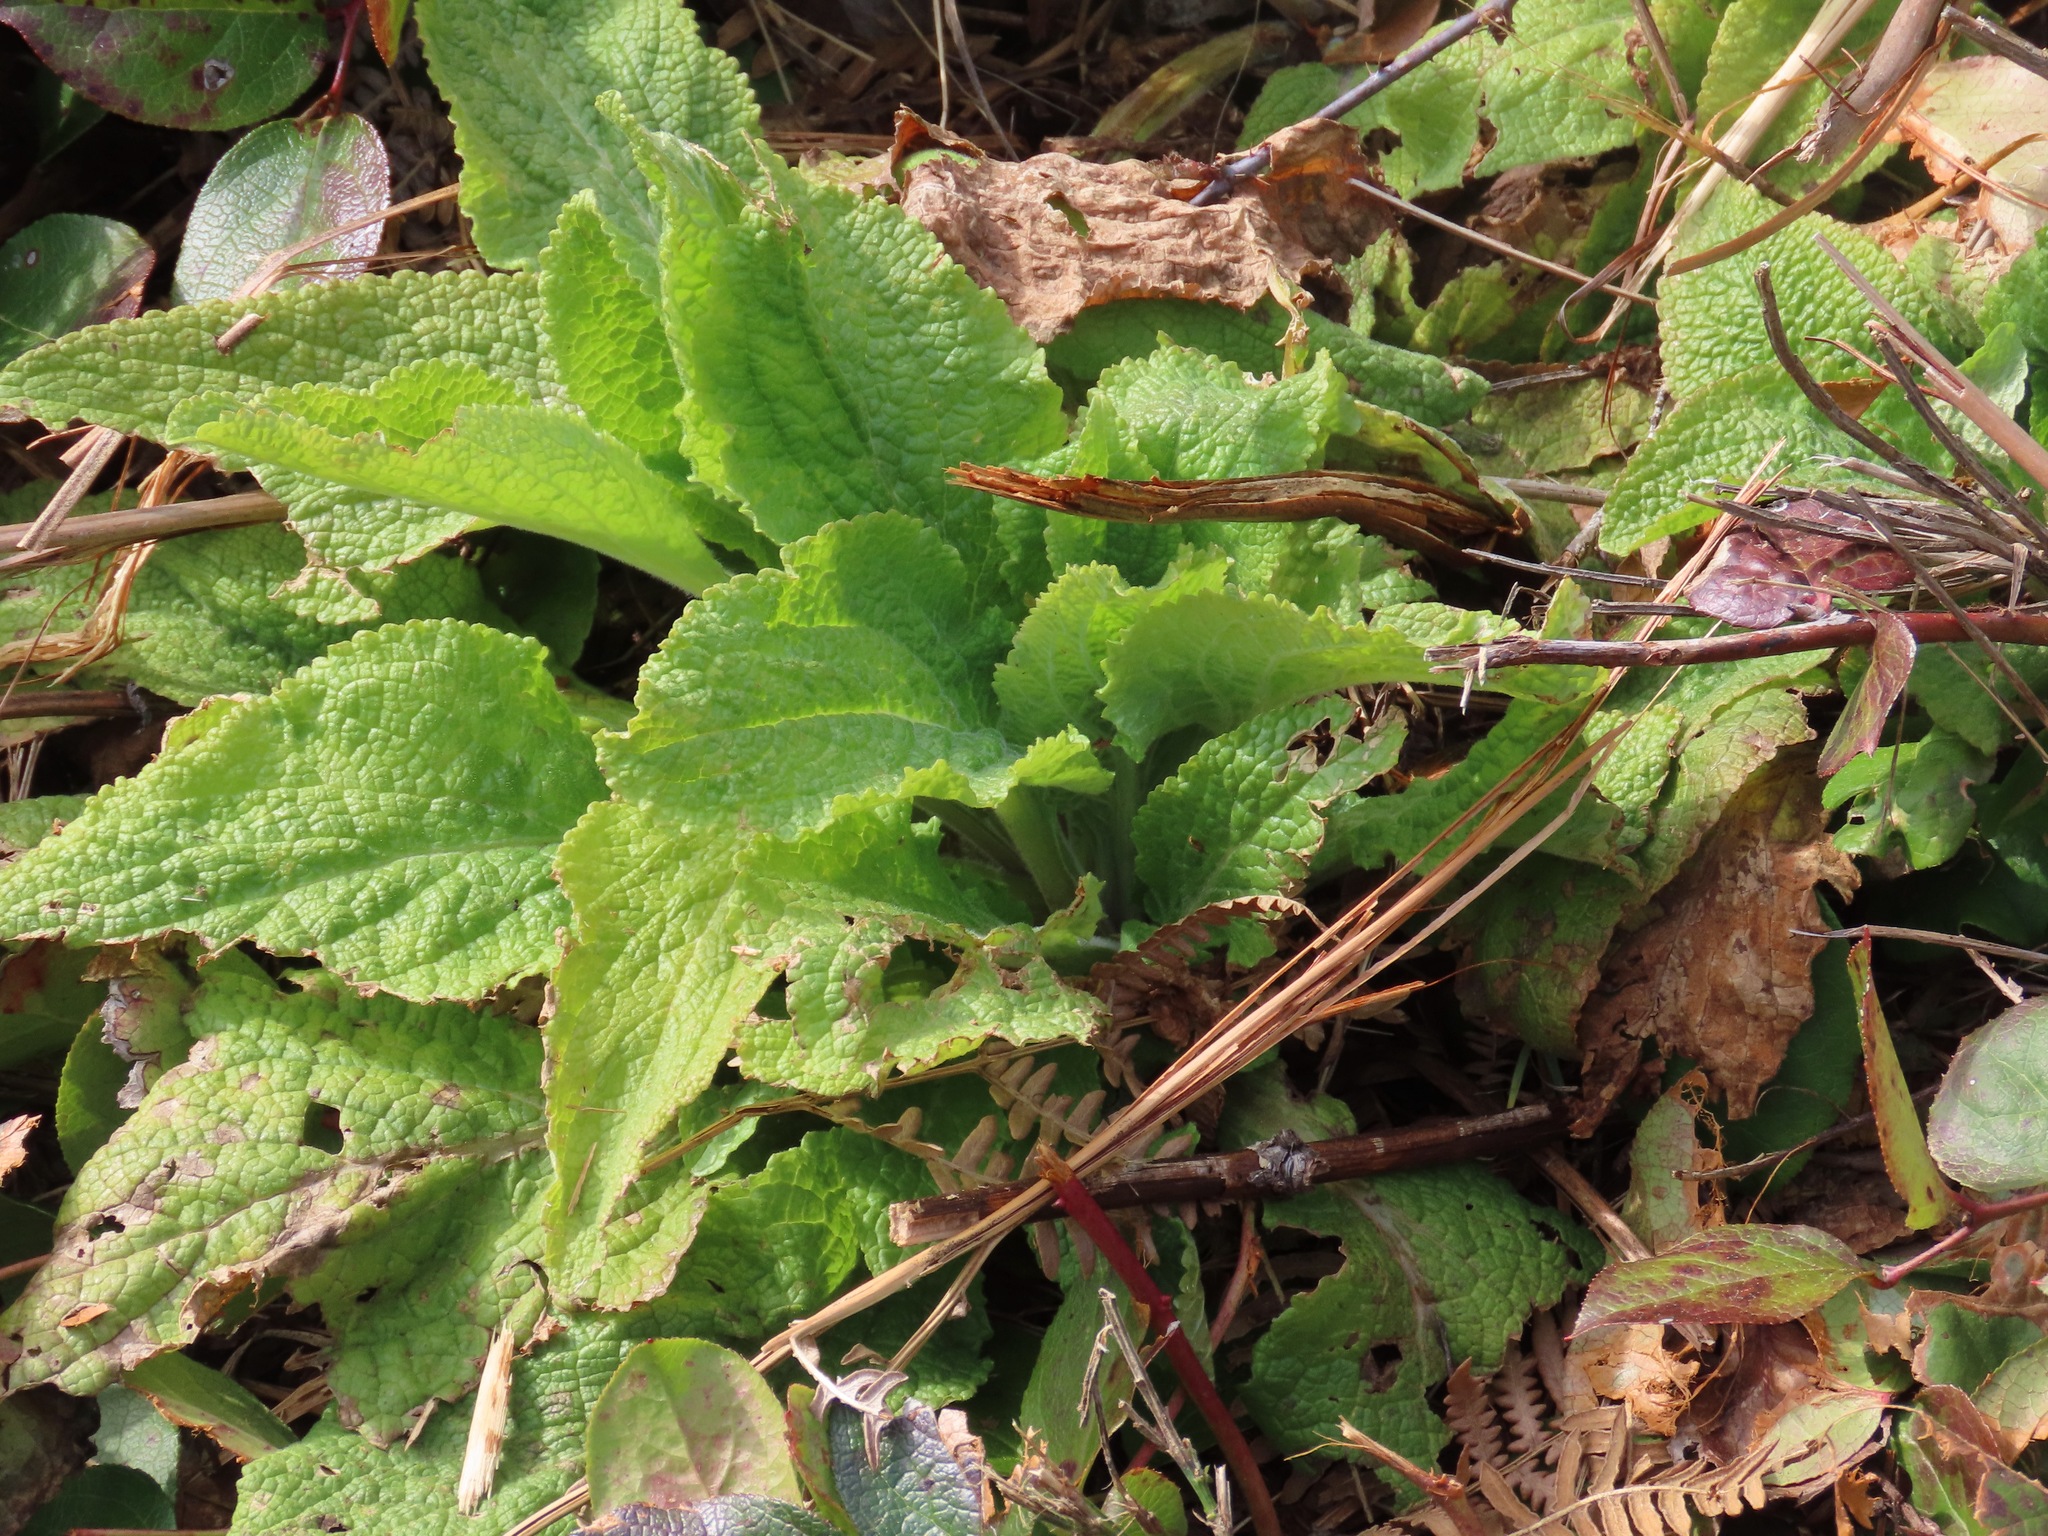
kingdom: Plantae
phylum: Tracheophyta
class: Magnoliopsida
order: Lamiales
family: Plantaginaceae
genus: Digitalis
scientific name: Digitalis purpurea
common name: Foxglove
